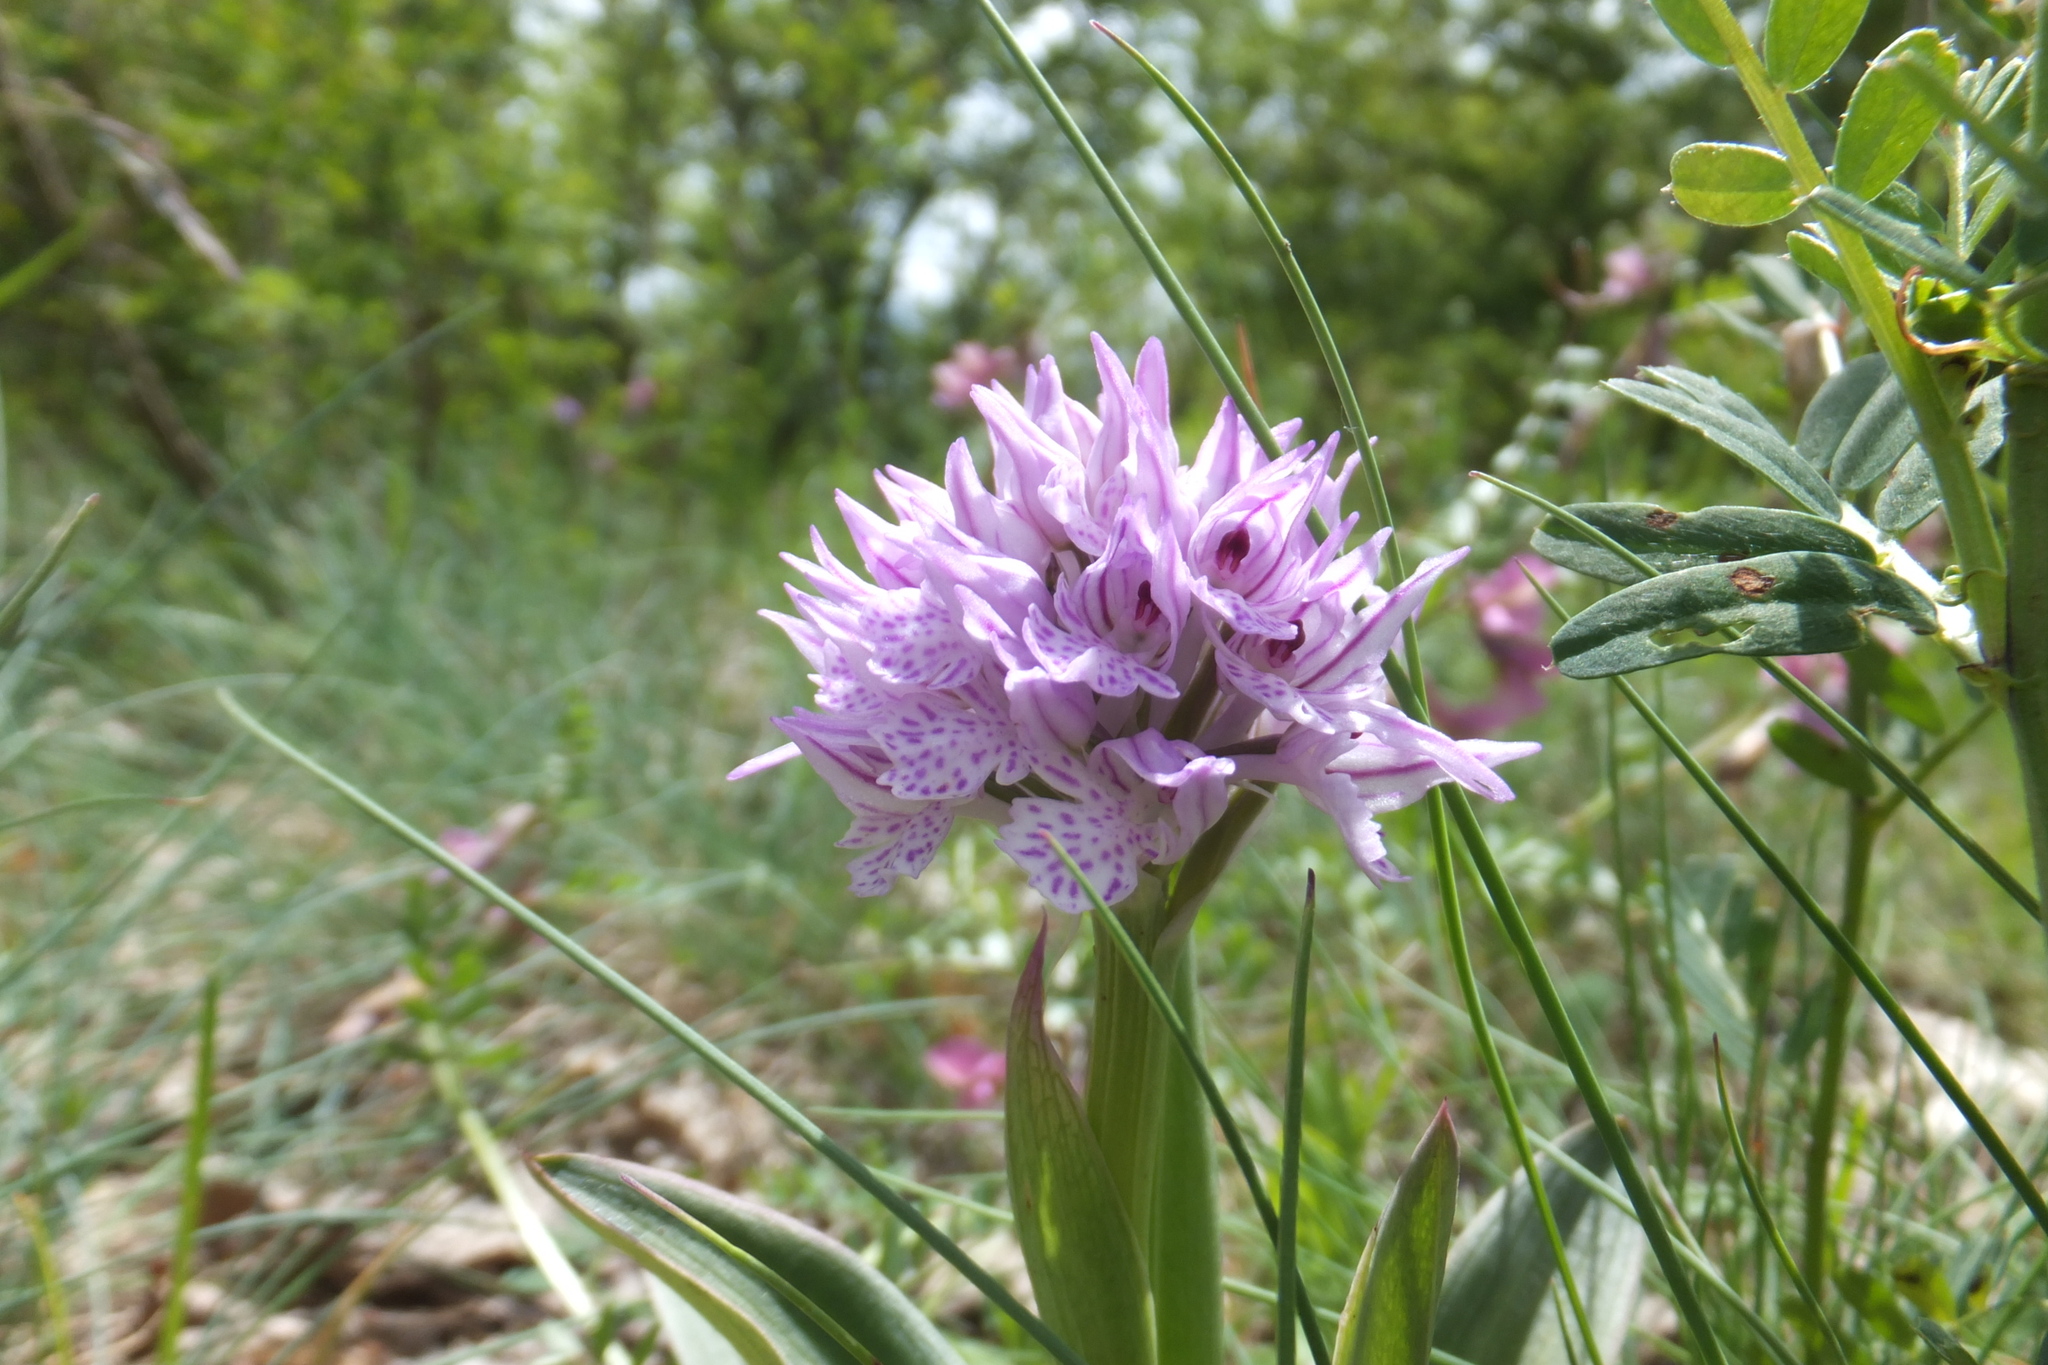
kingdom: Plantae
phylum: Tracheophyta
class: Liliopsida
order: Asparagales
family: Orchidaceae
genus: Neotinea
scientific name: Neotinea tridentata
